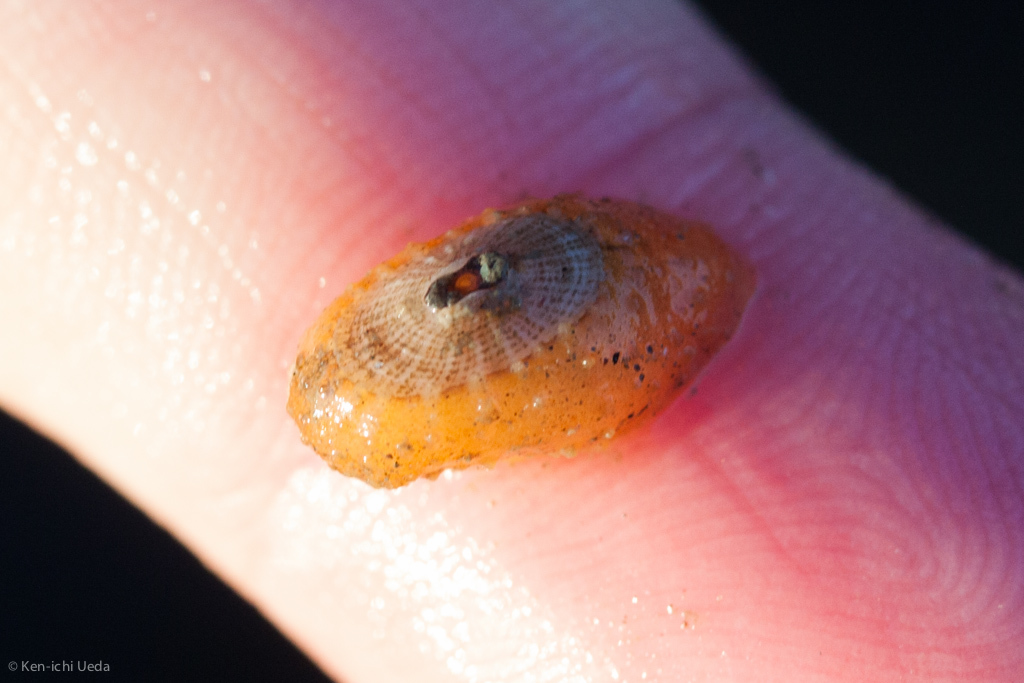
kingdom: Animalia
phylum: Mollusca
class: Gastropoda
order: Lepetellida
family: Fissurellidae
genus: Fissurellidea
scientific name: Fissurellidea bimaculata
